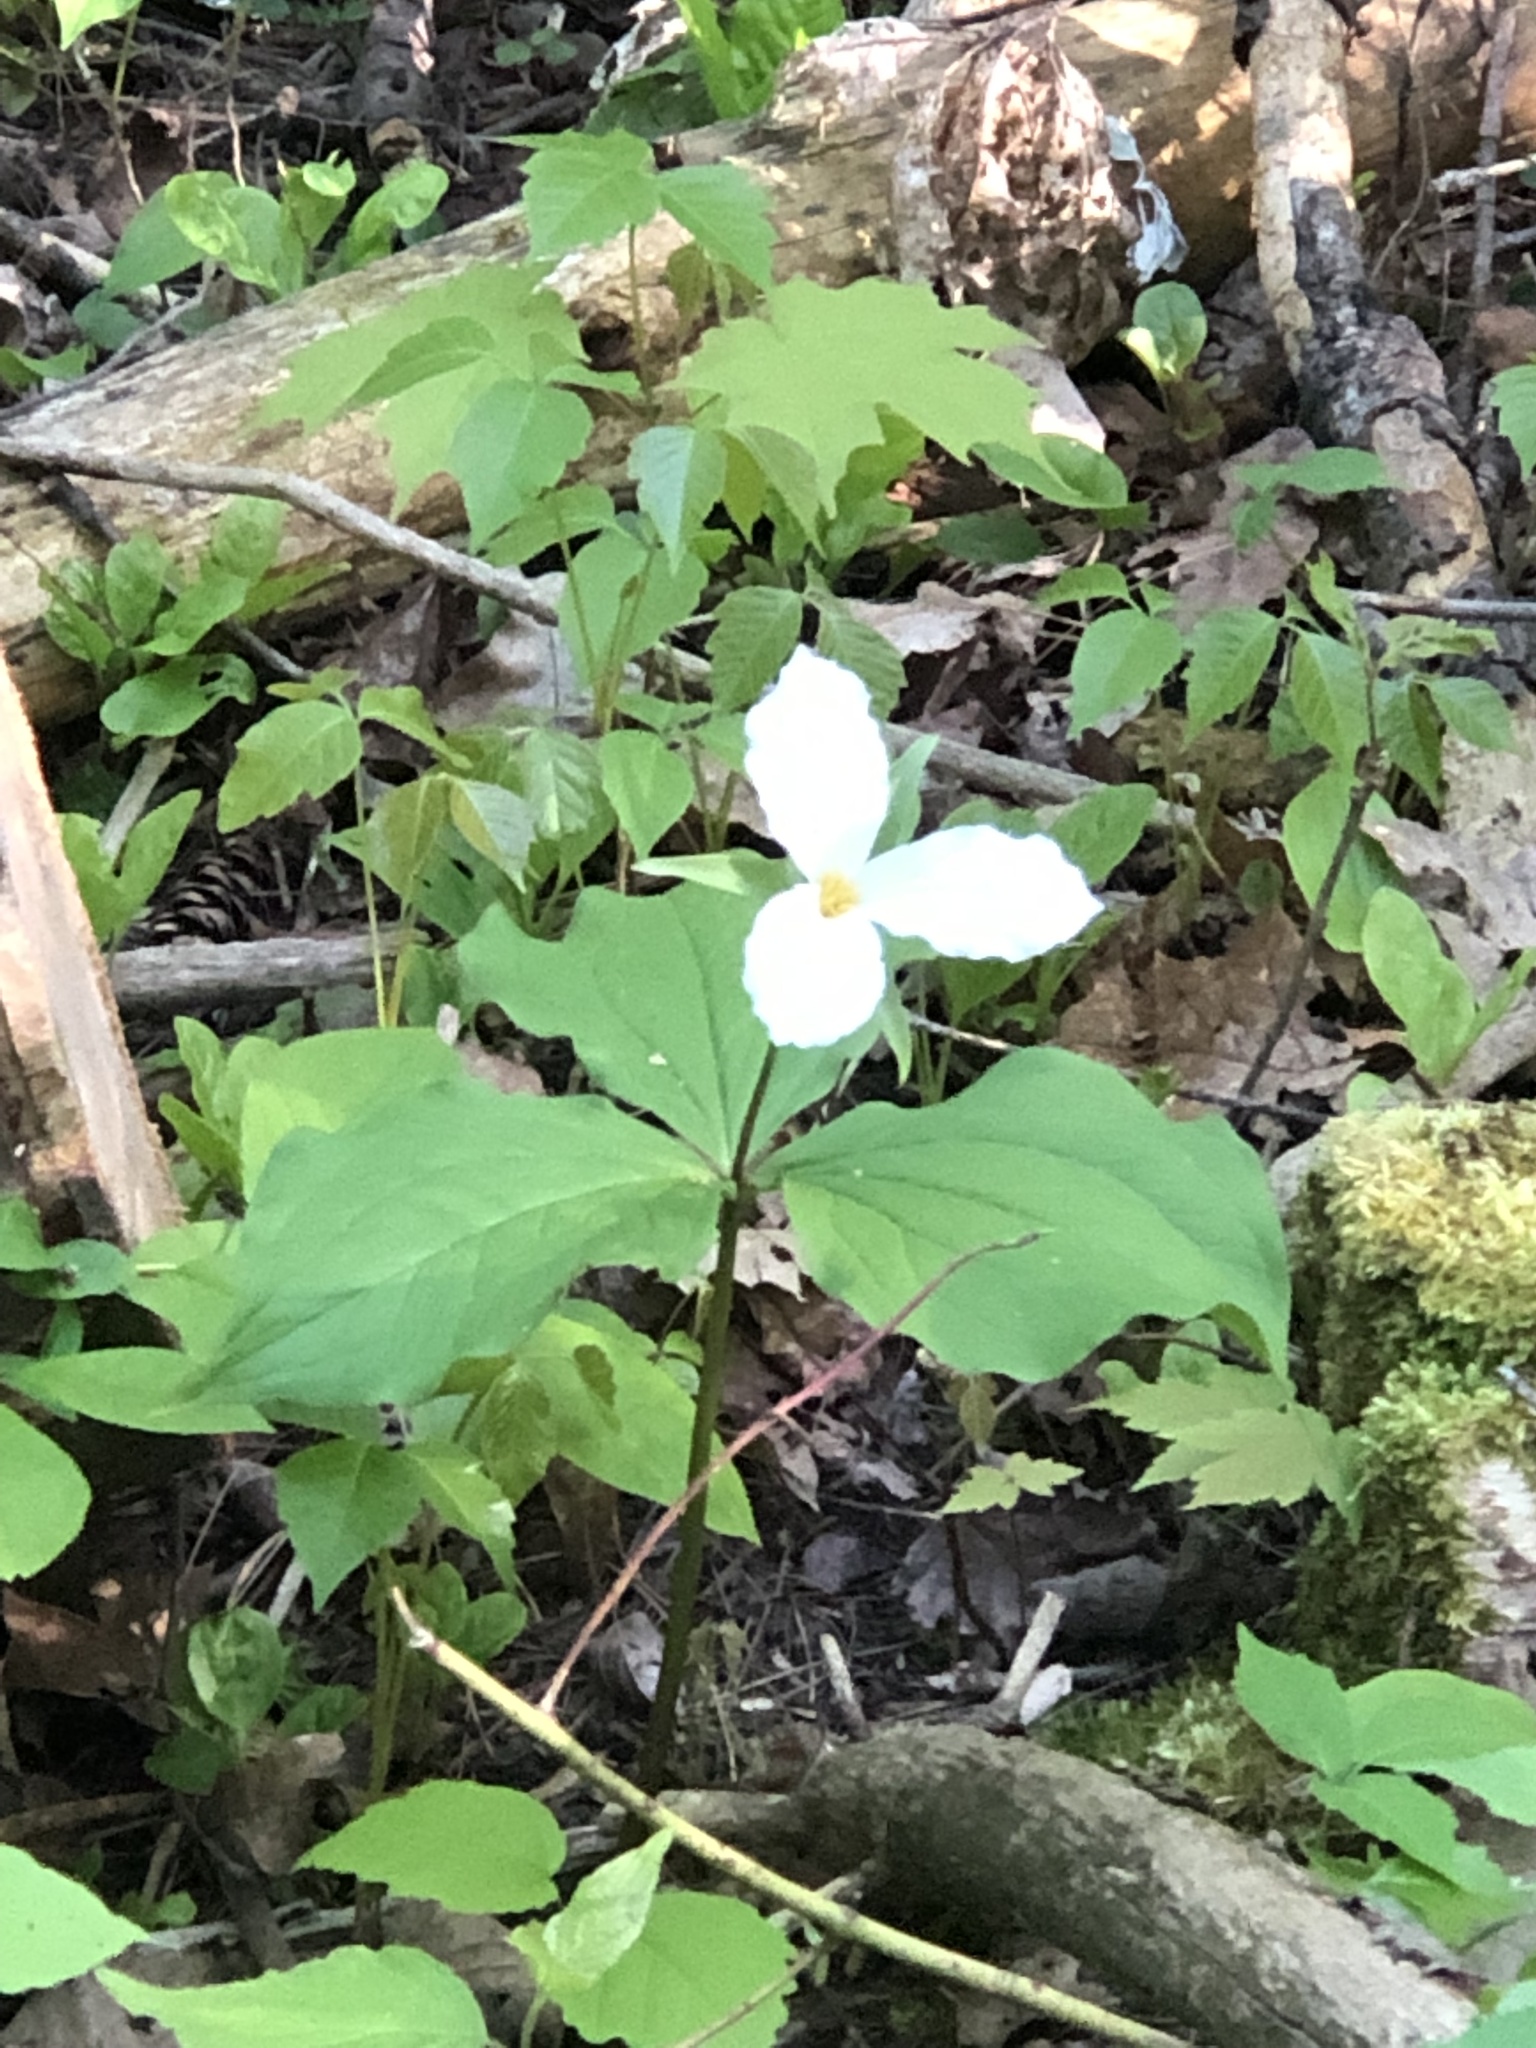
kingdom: Plantae
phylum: Tracheophyta
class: Liliopsida
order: Liliales
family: Melanthiaceae
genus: Trillium
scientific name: Trillium grandiflorum
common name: Great white trillium
